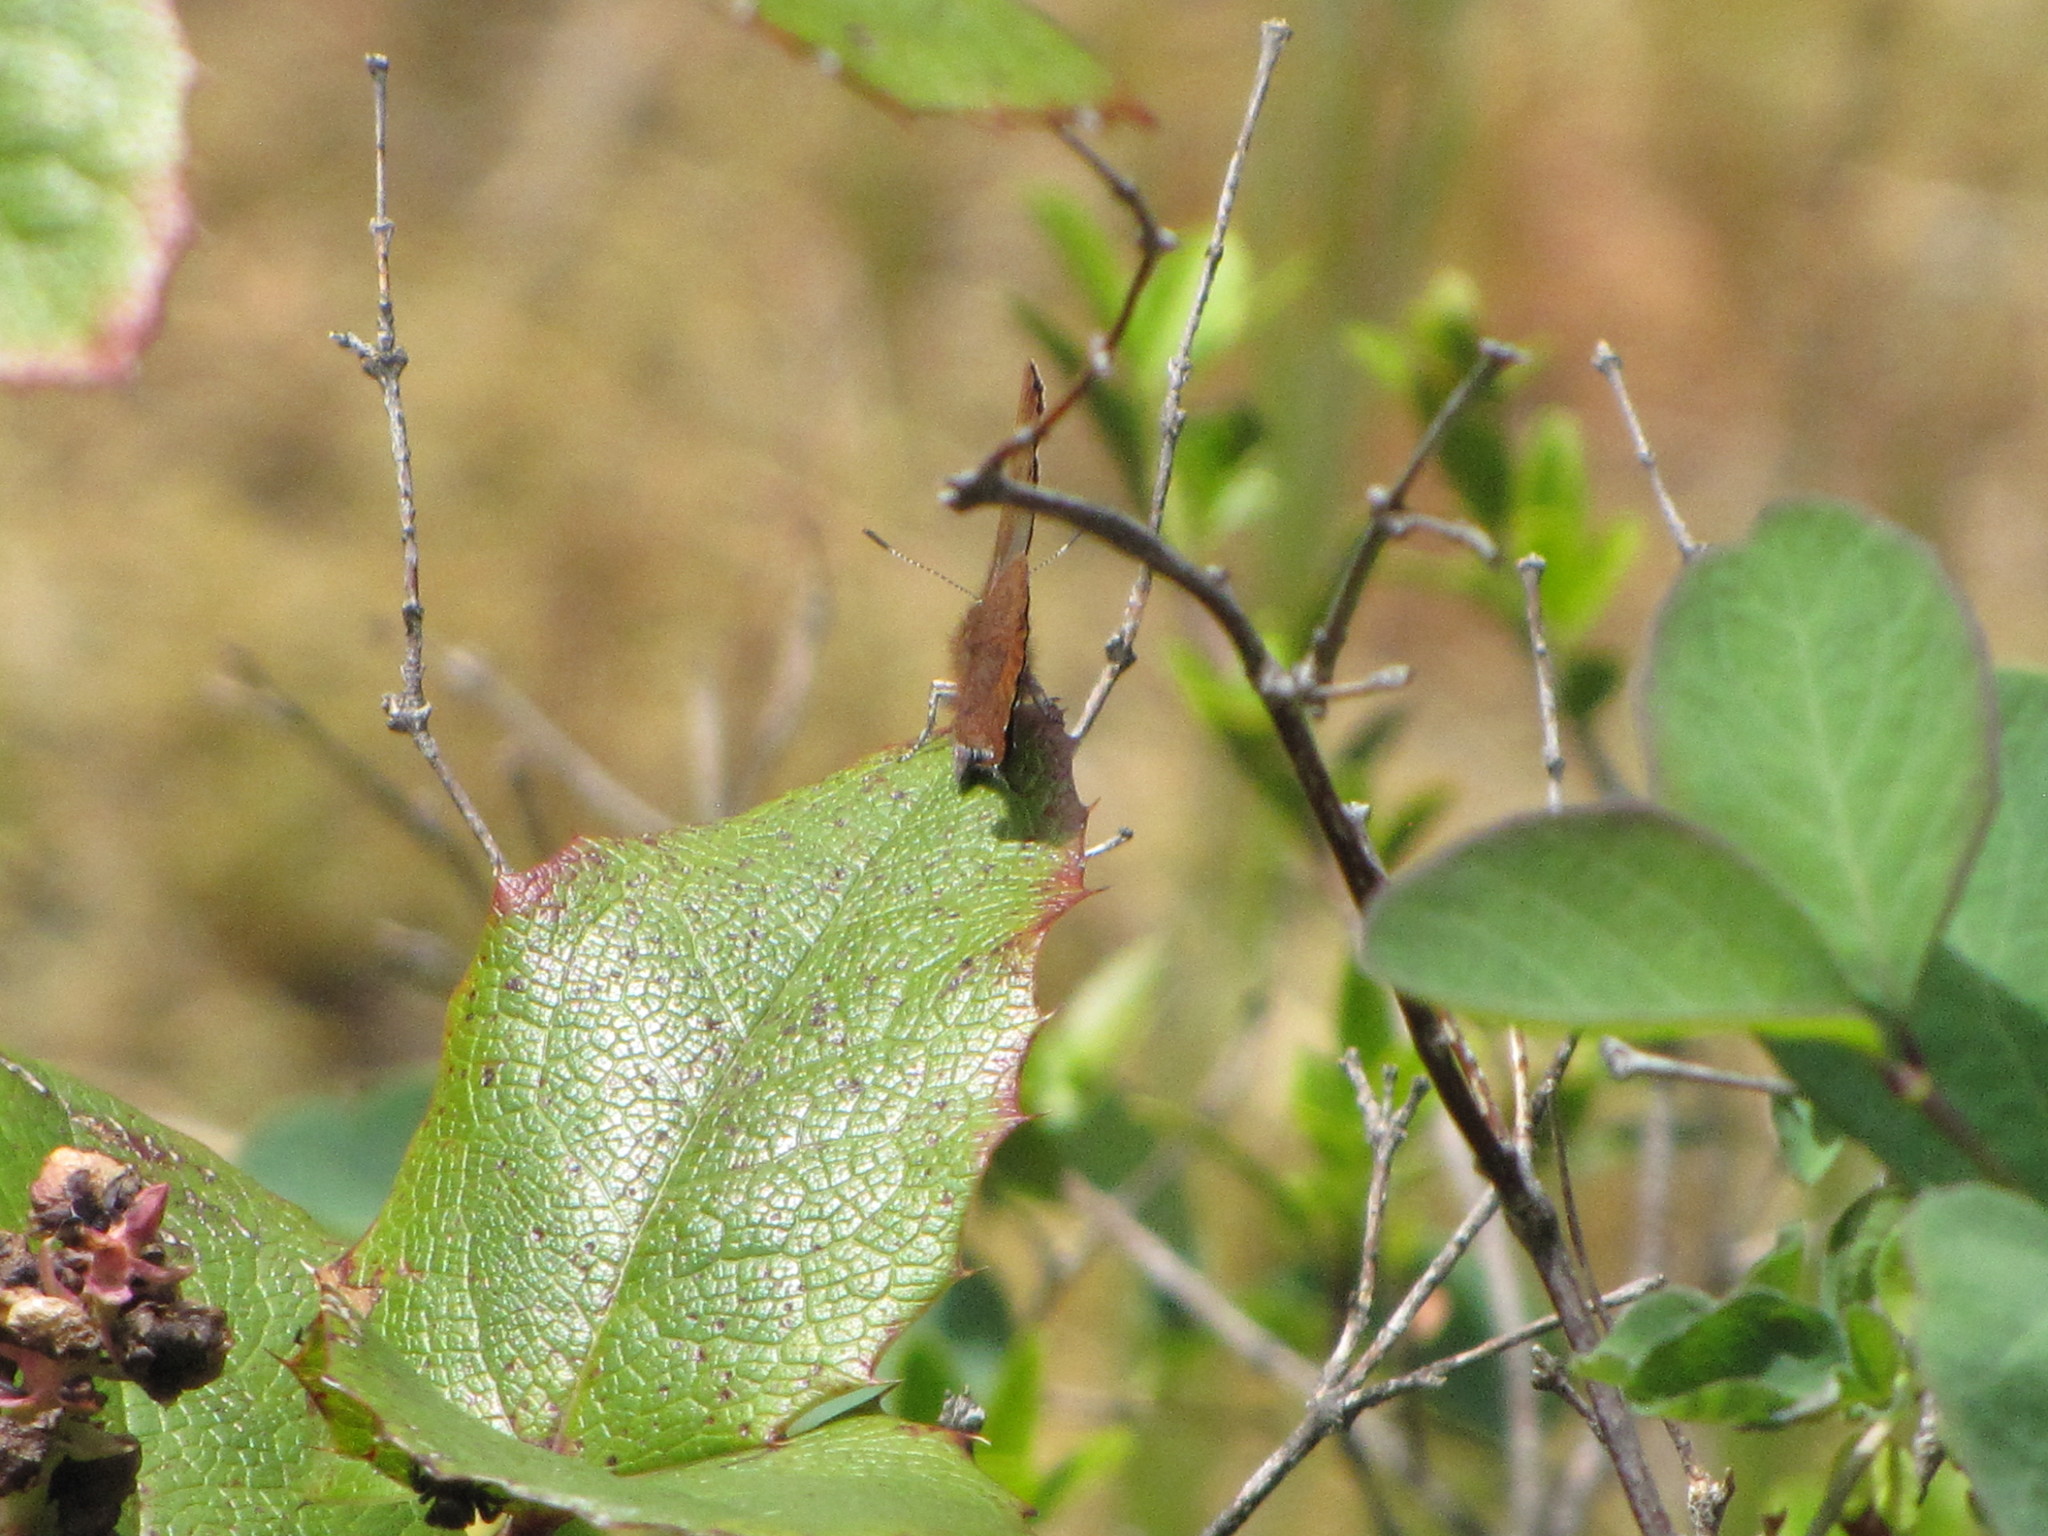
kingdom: Animalia
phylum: Arthropoda
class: Insecta
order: Lepidoptera
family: Lycaenidae
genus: Thecla
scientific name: Thecla iroides
